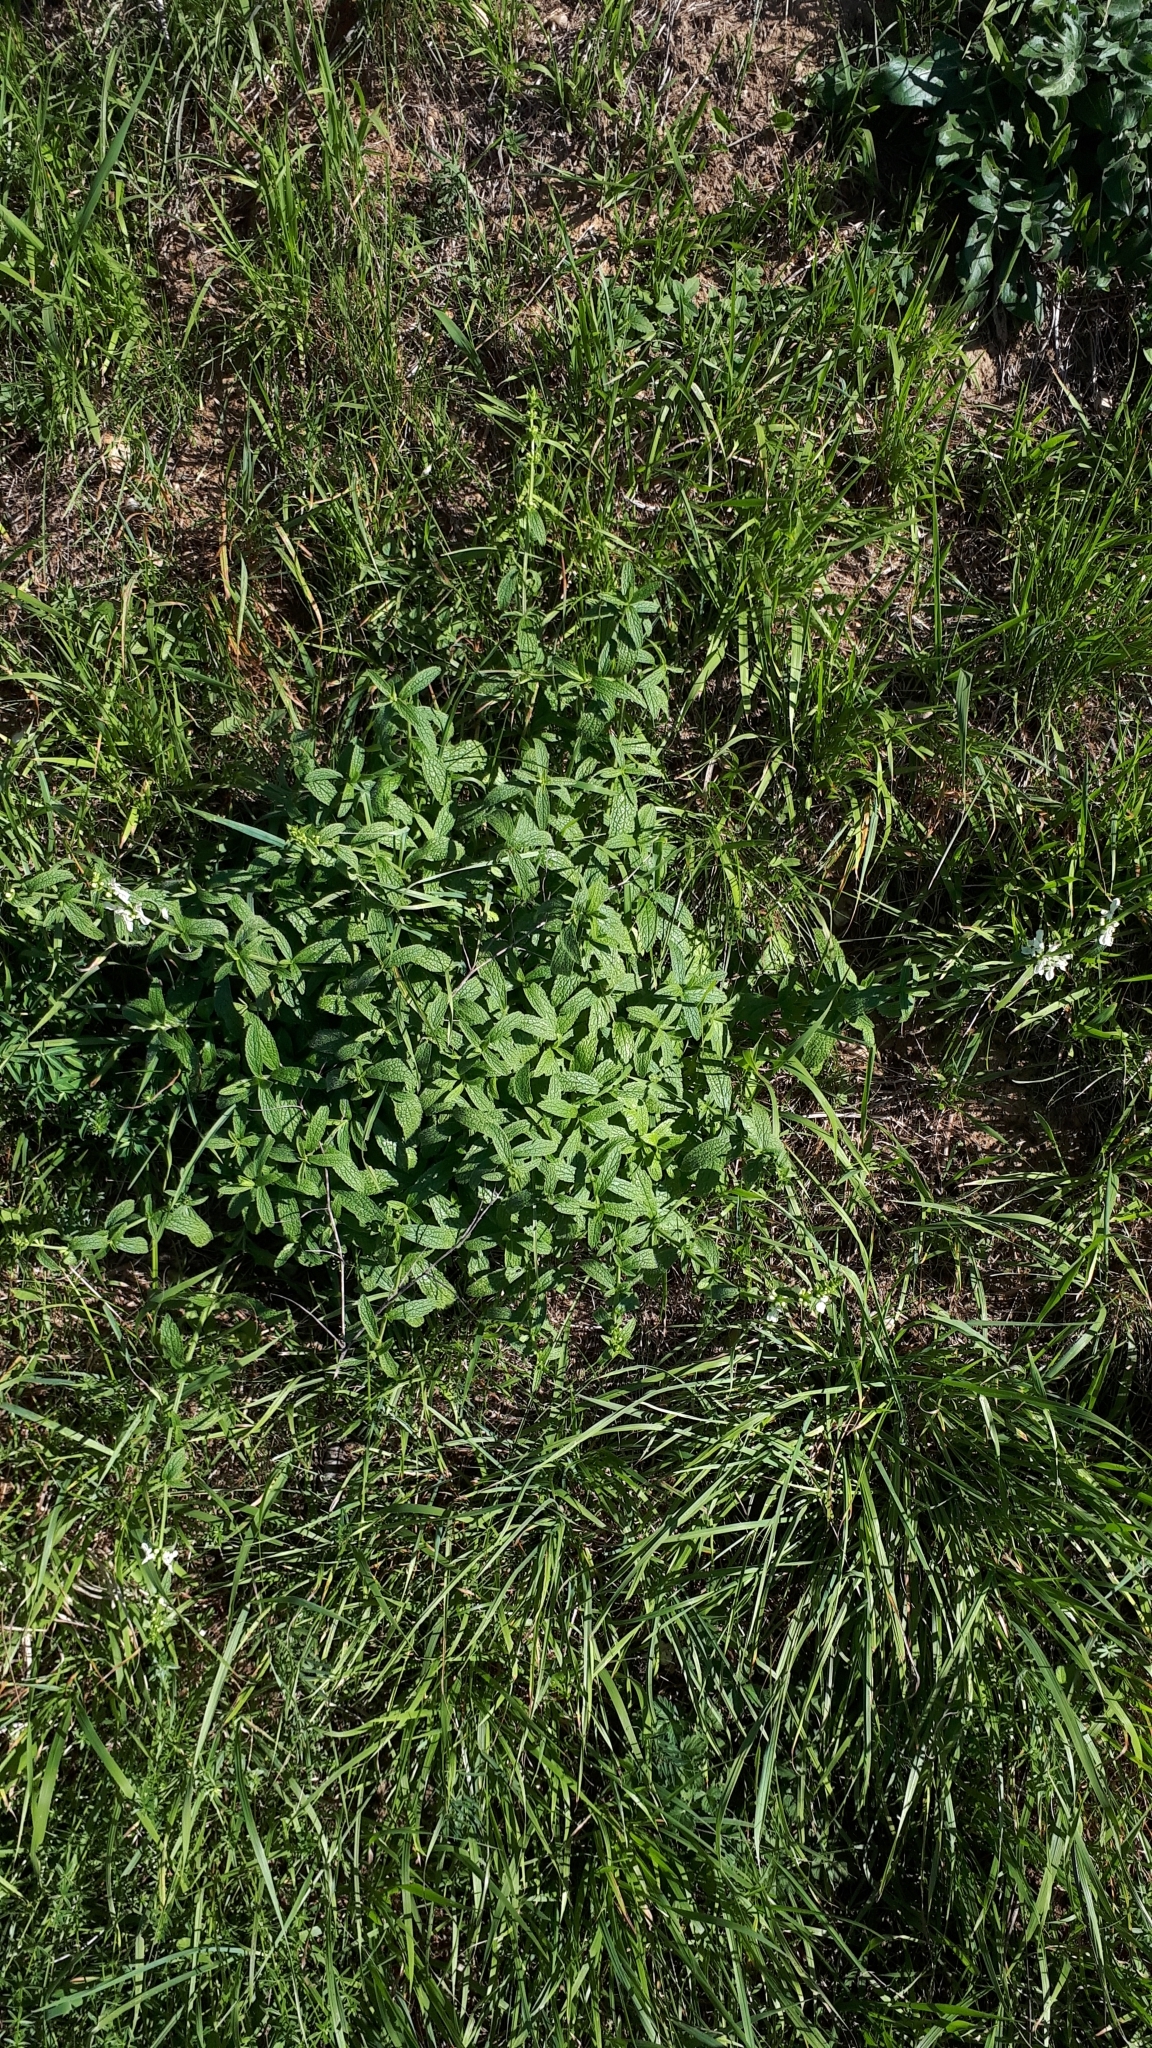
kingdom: Plantae
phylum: Tracheophyta
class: Magnoliopsida
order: Lamiales
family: Lamiaceae
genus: Stachys
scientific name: Stachys recta
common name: Perennial yellow-woundwort
